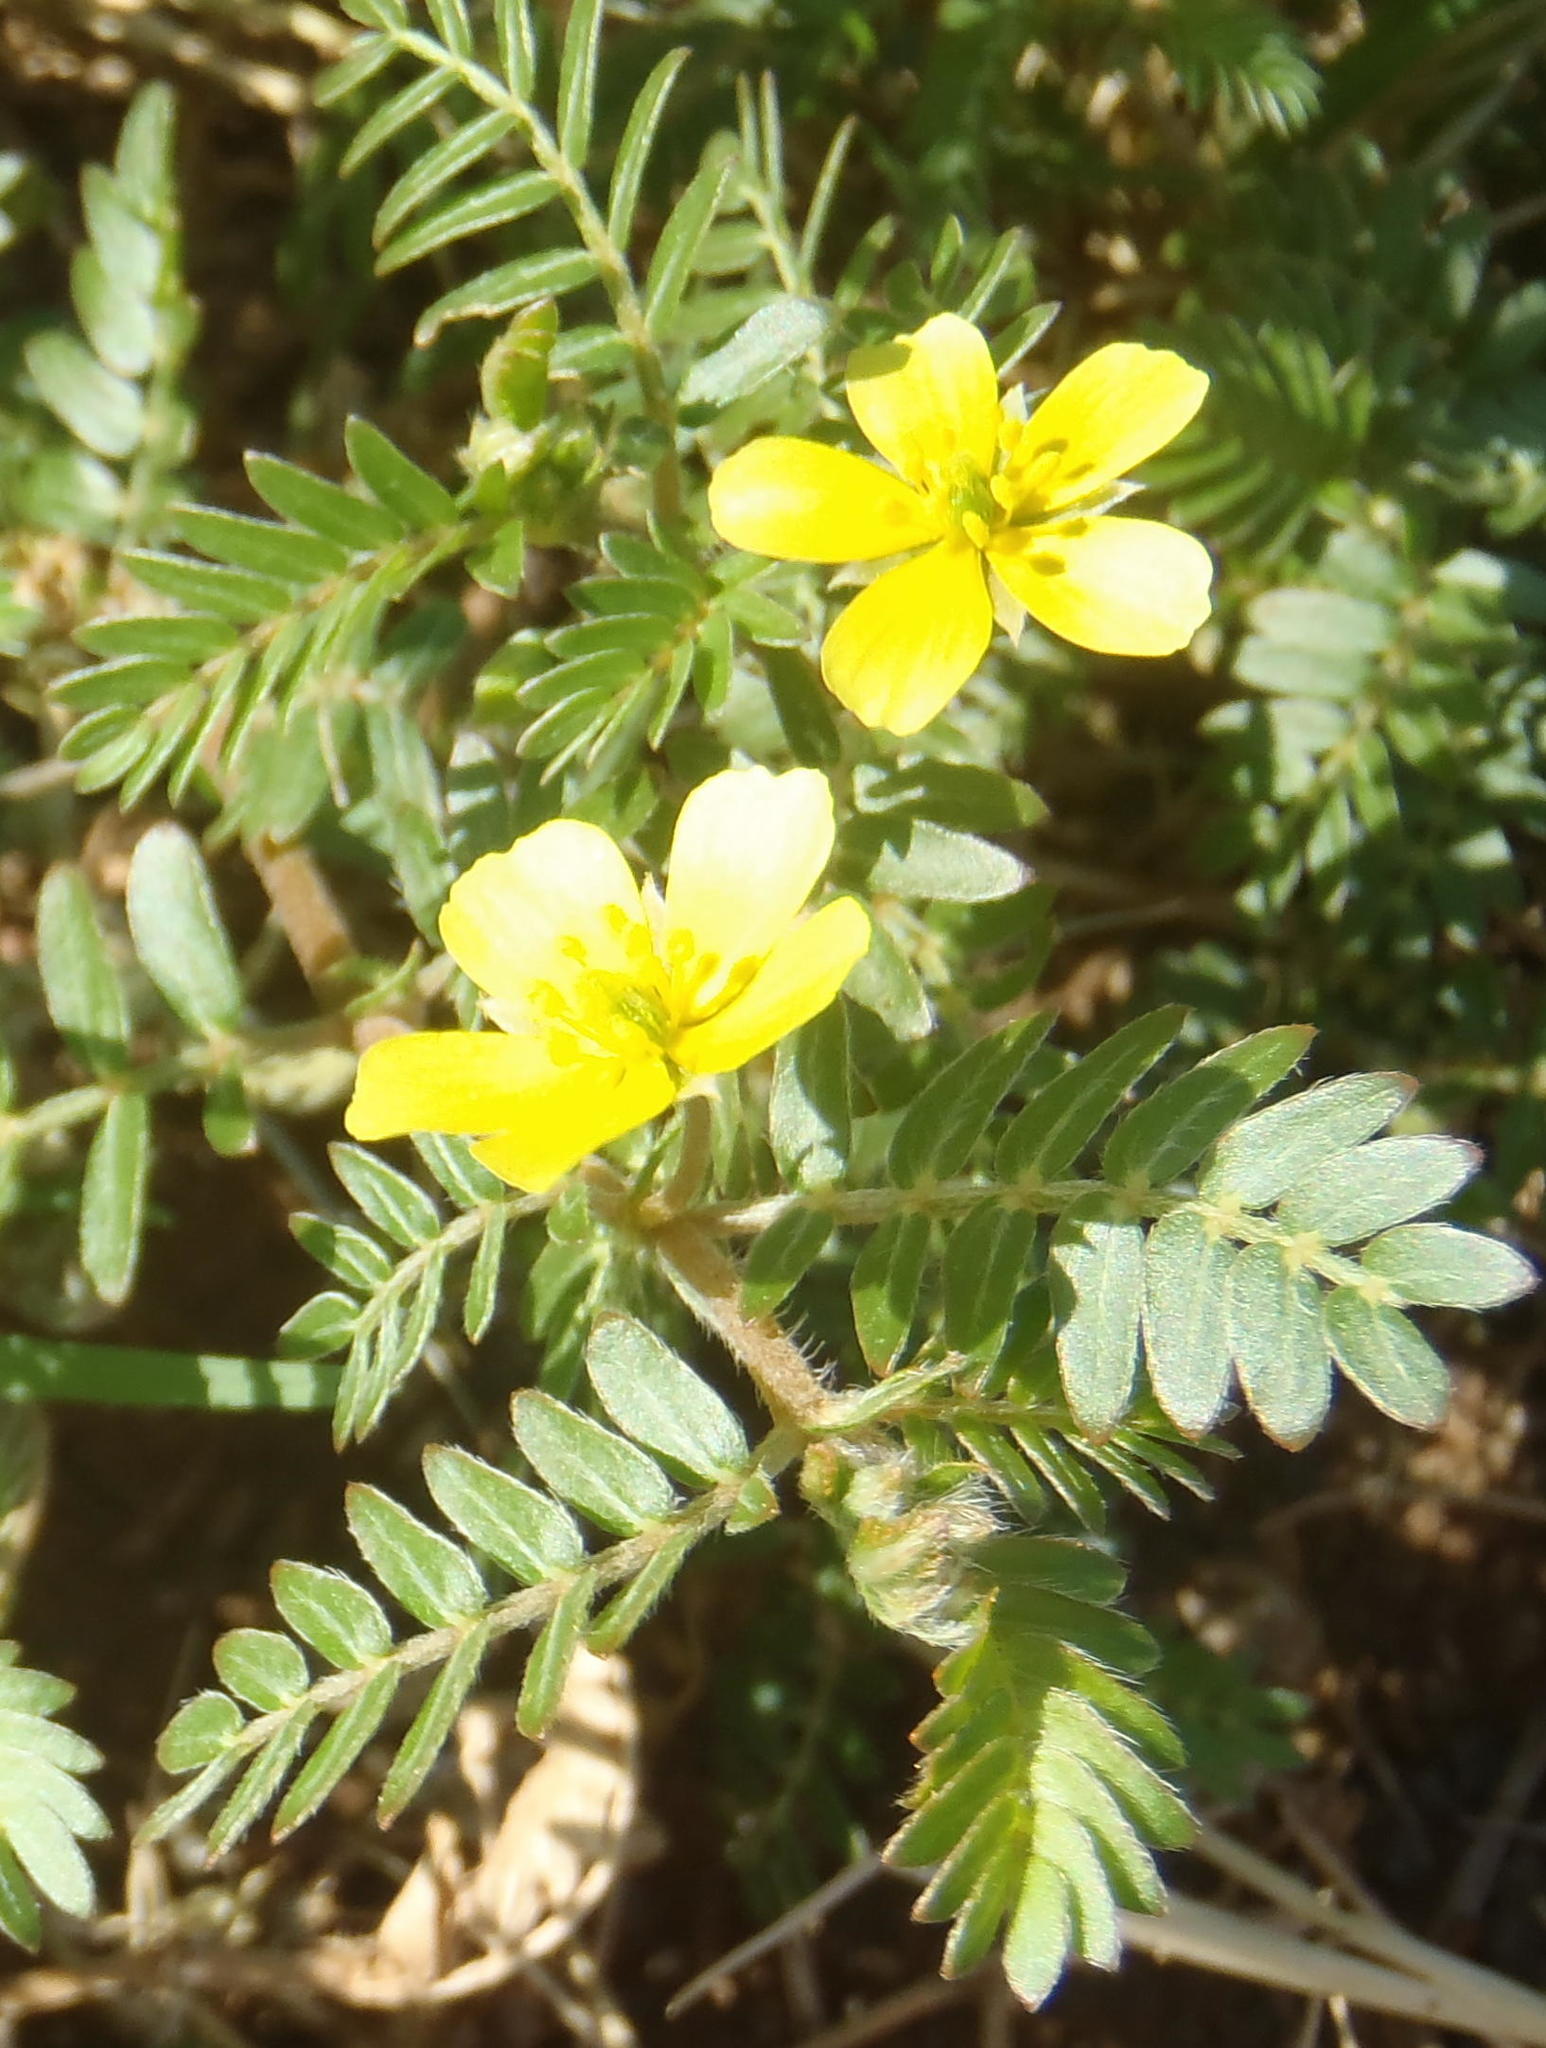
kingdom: Plantae
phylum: Tracheophyta
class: Magnoliopsida
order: Zygophyllales
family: Zygophyllaceae
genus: Tribulus
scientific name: Tribulus terrestris
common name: Puncturevine
